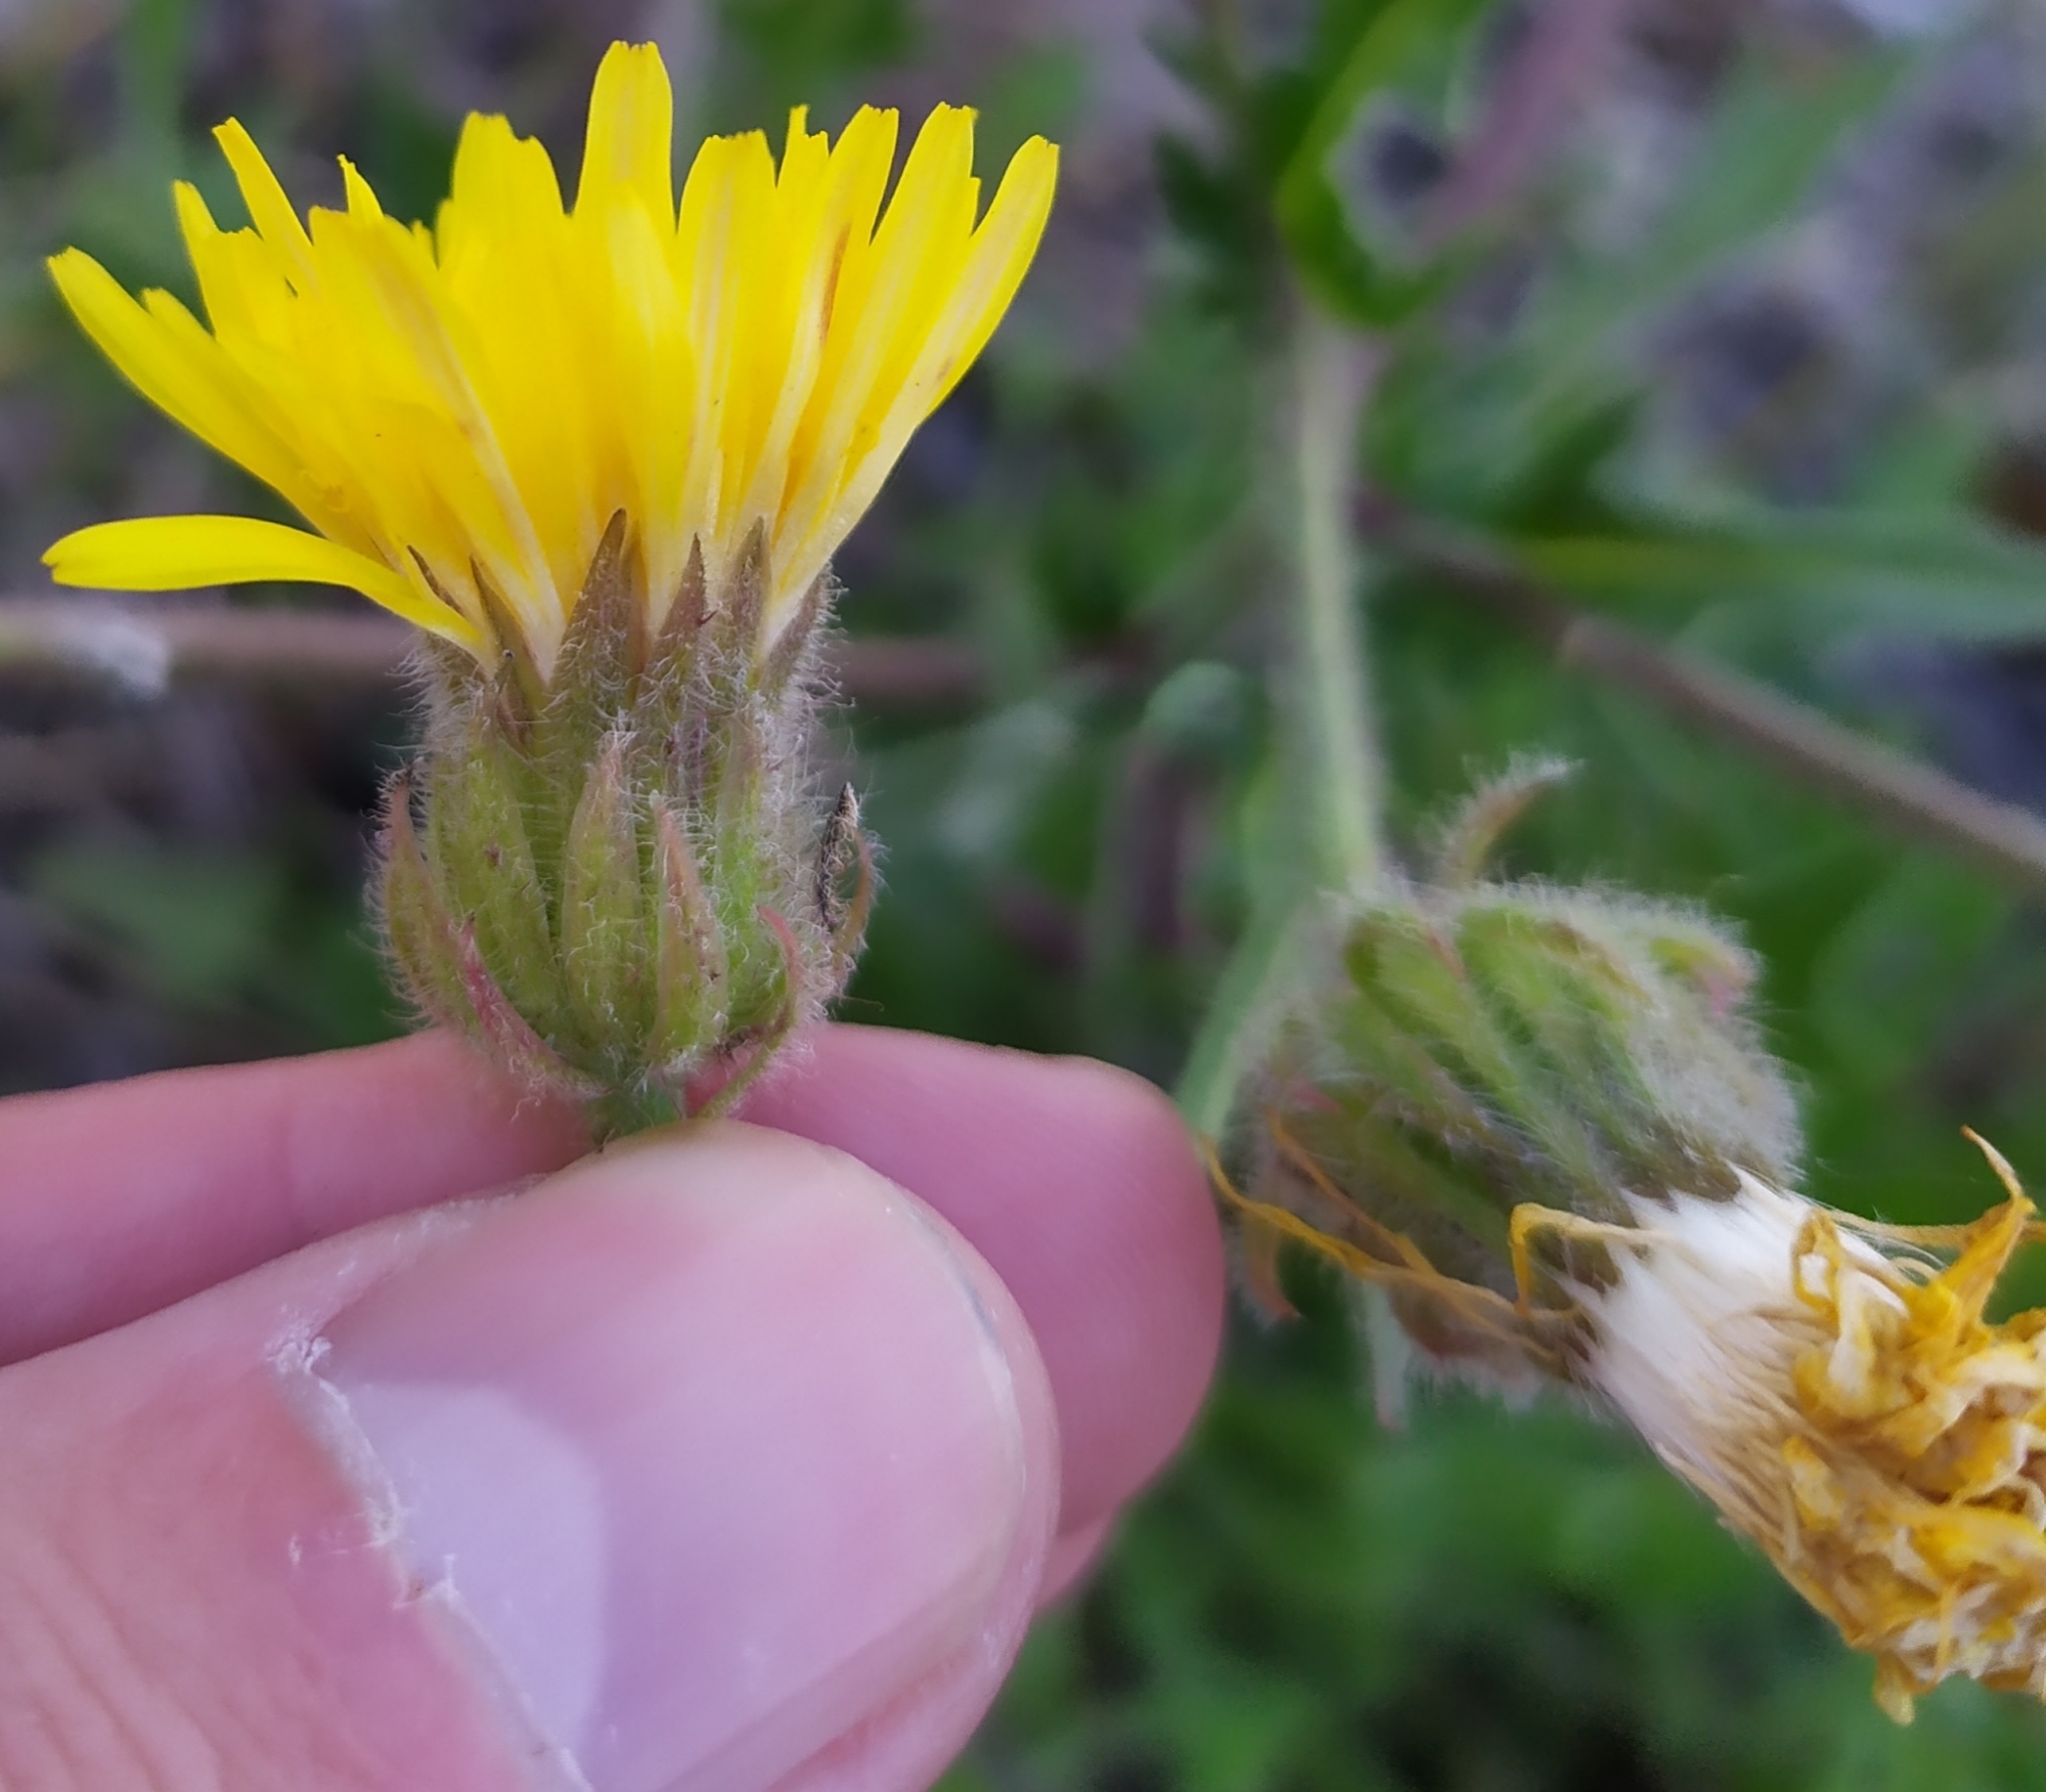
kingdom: Plantae
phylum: Tracheophyta
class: Magnoliopsida
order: Asterales
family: Asteraceae
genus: Crepis
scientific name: Crepis foetida
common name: Stinking hawk's-beard
